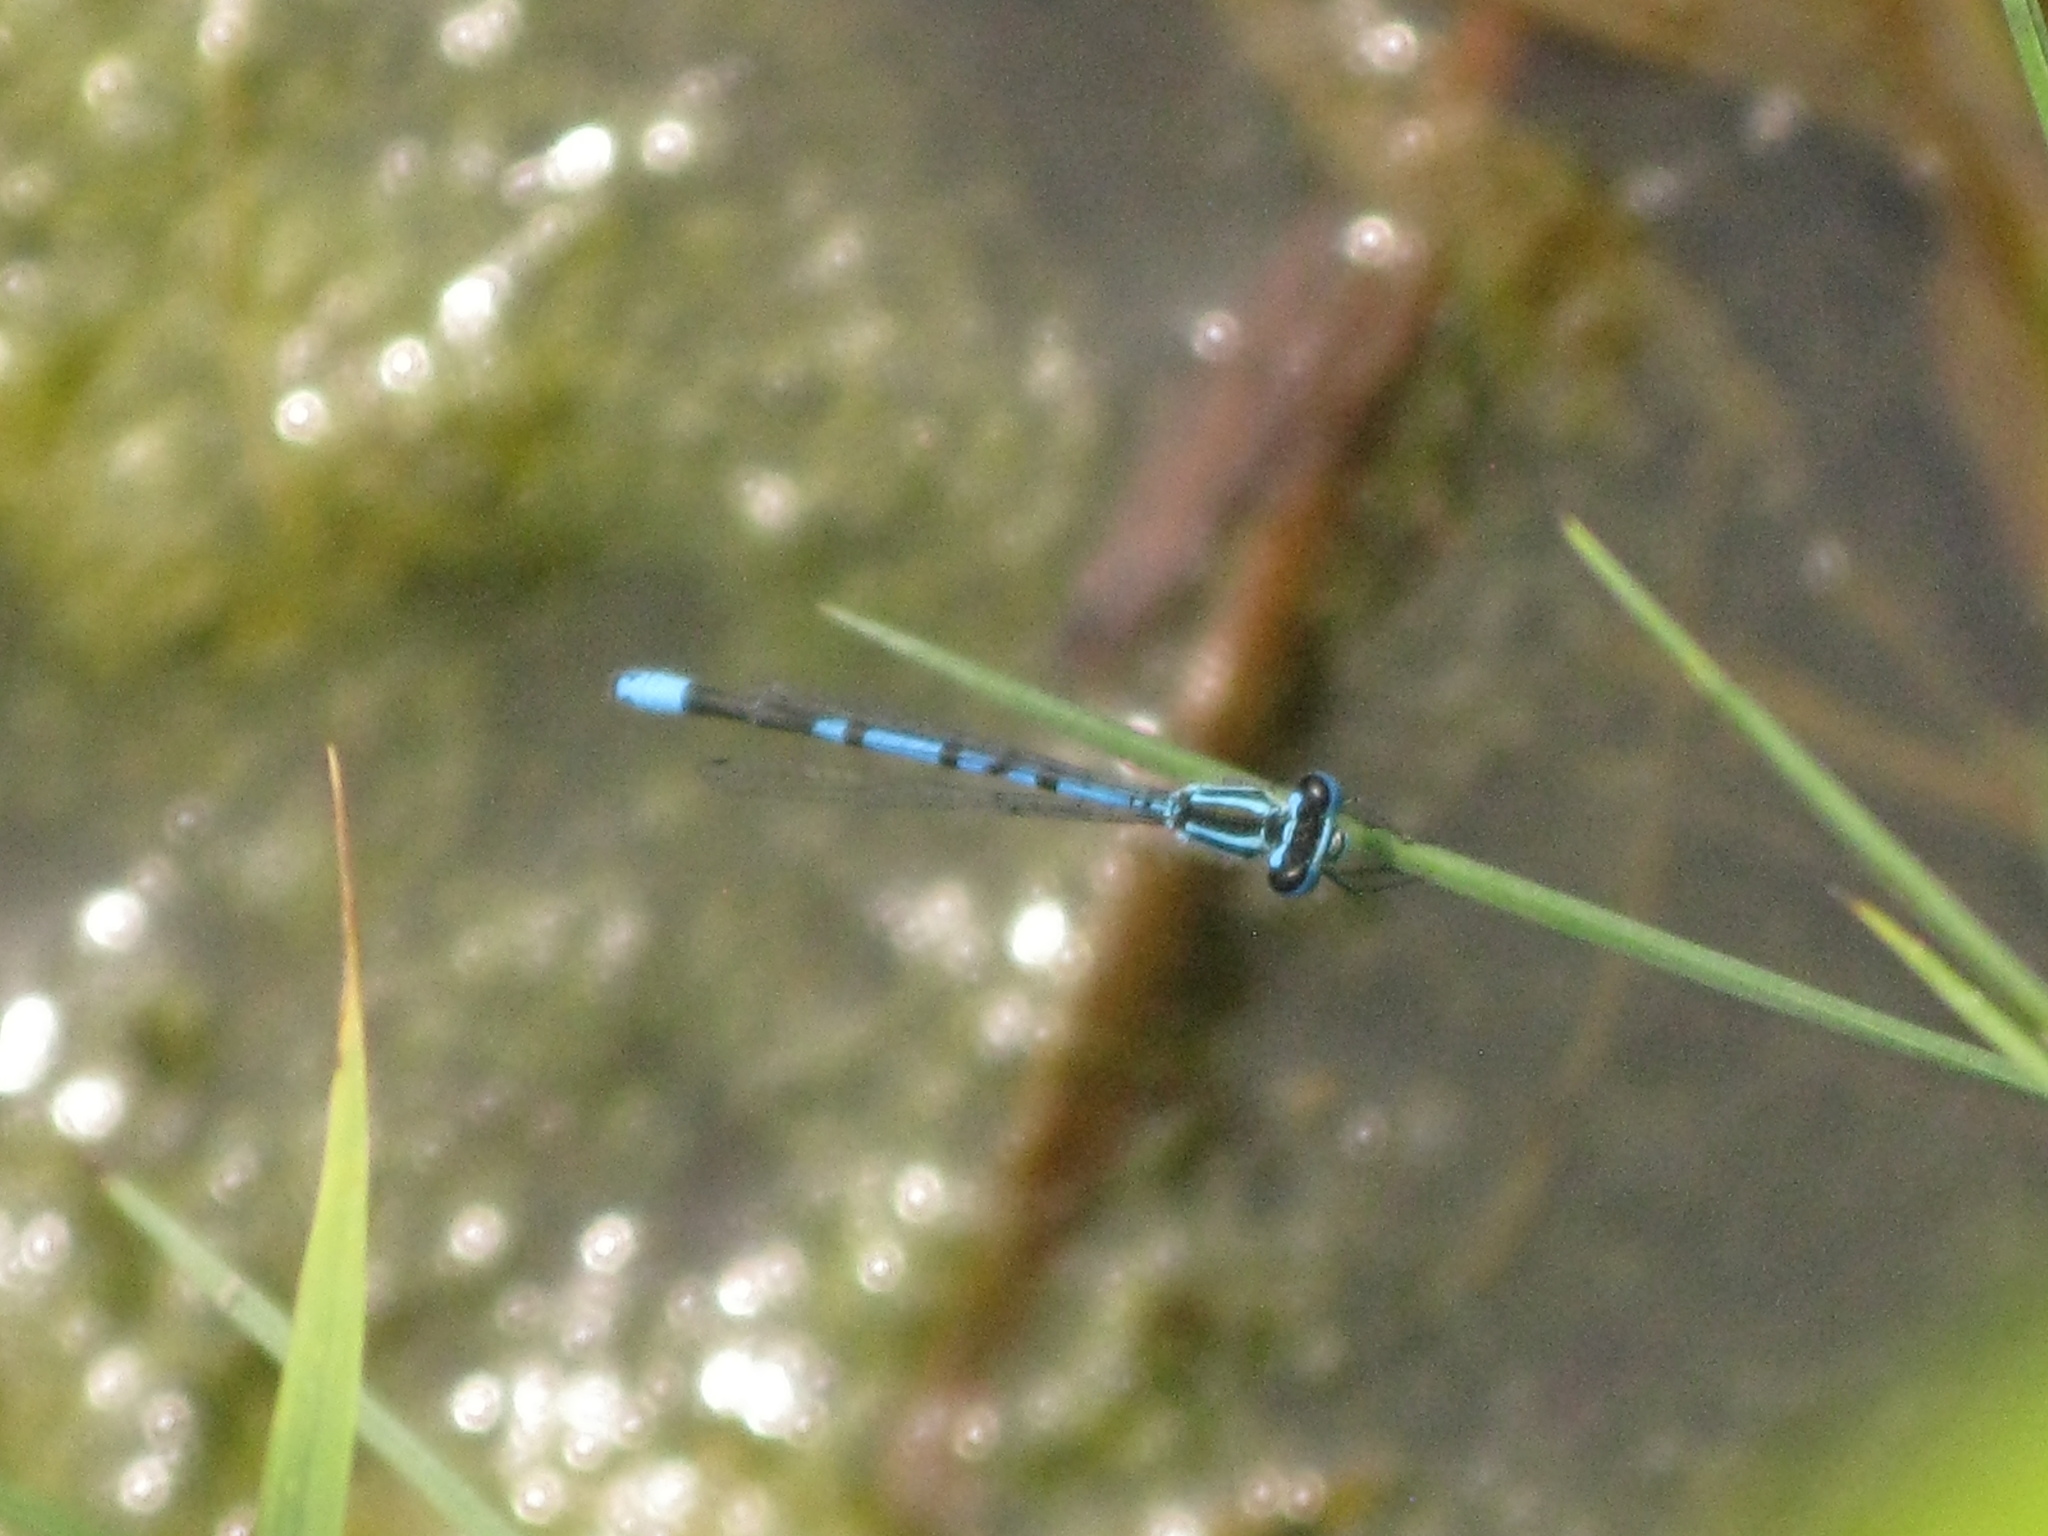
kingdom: Animalia
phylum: Arthropoda
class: Insecta
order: Odonata
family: Coenagrionidae
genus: Coenagrion
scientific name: Coenagrion puella
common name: Azure damselfly
